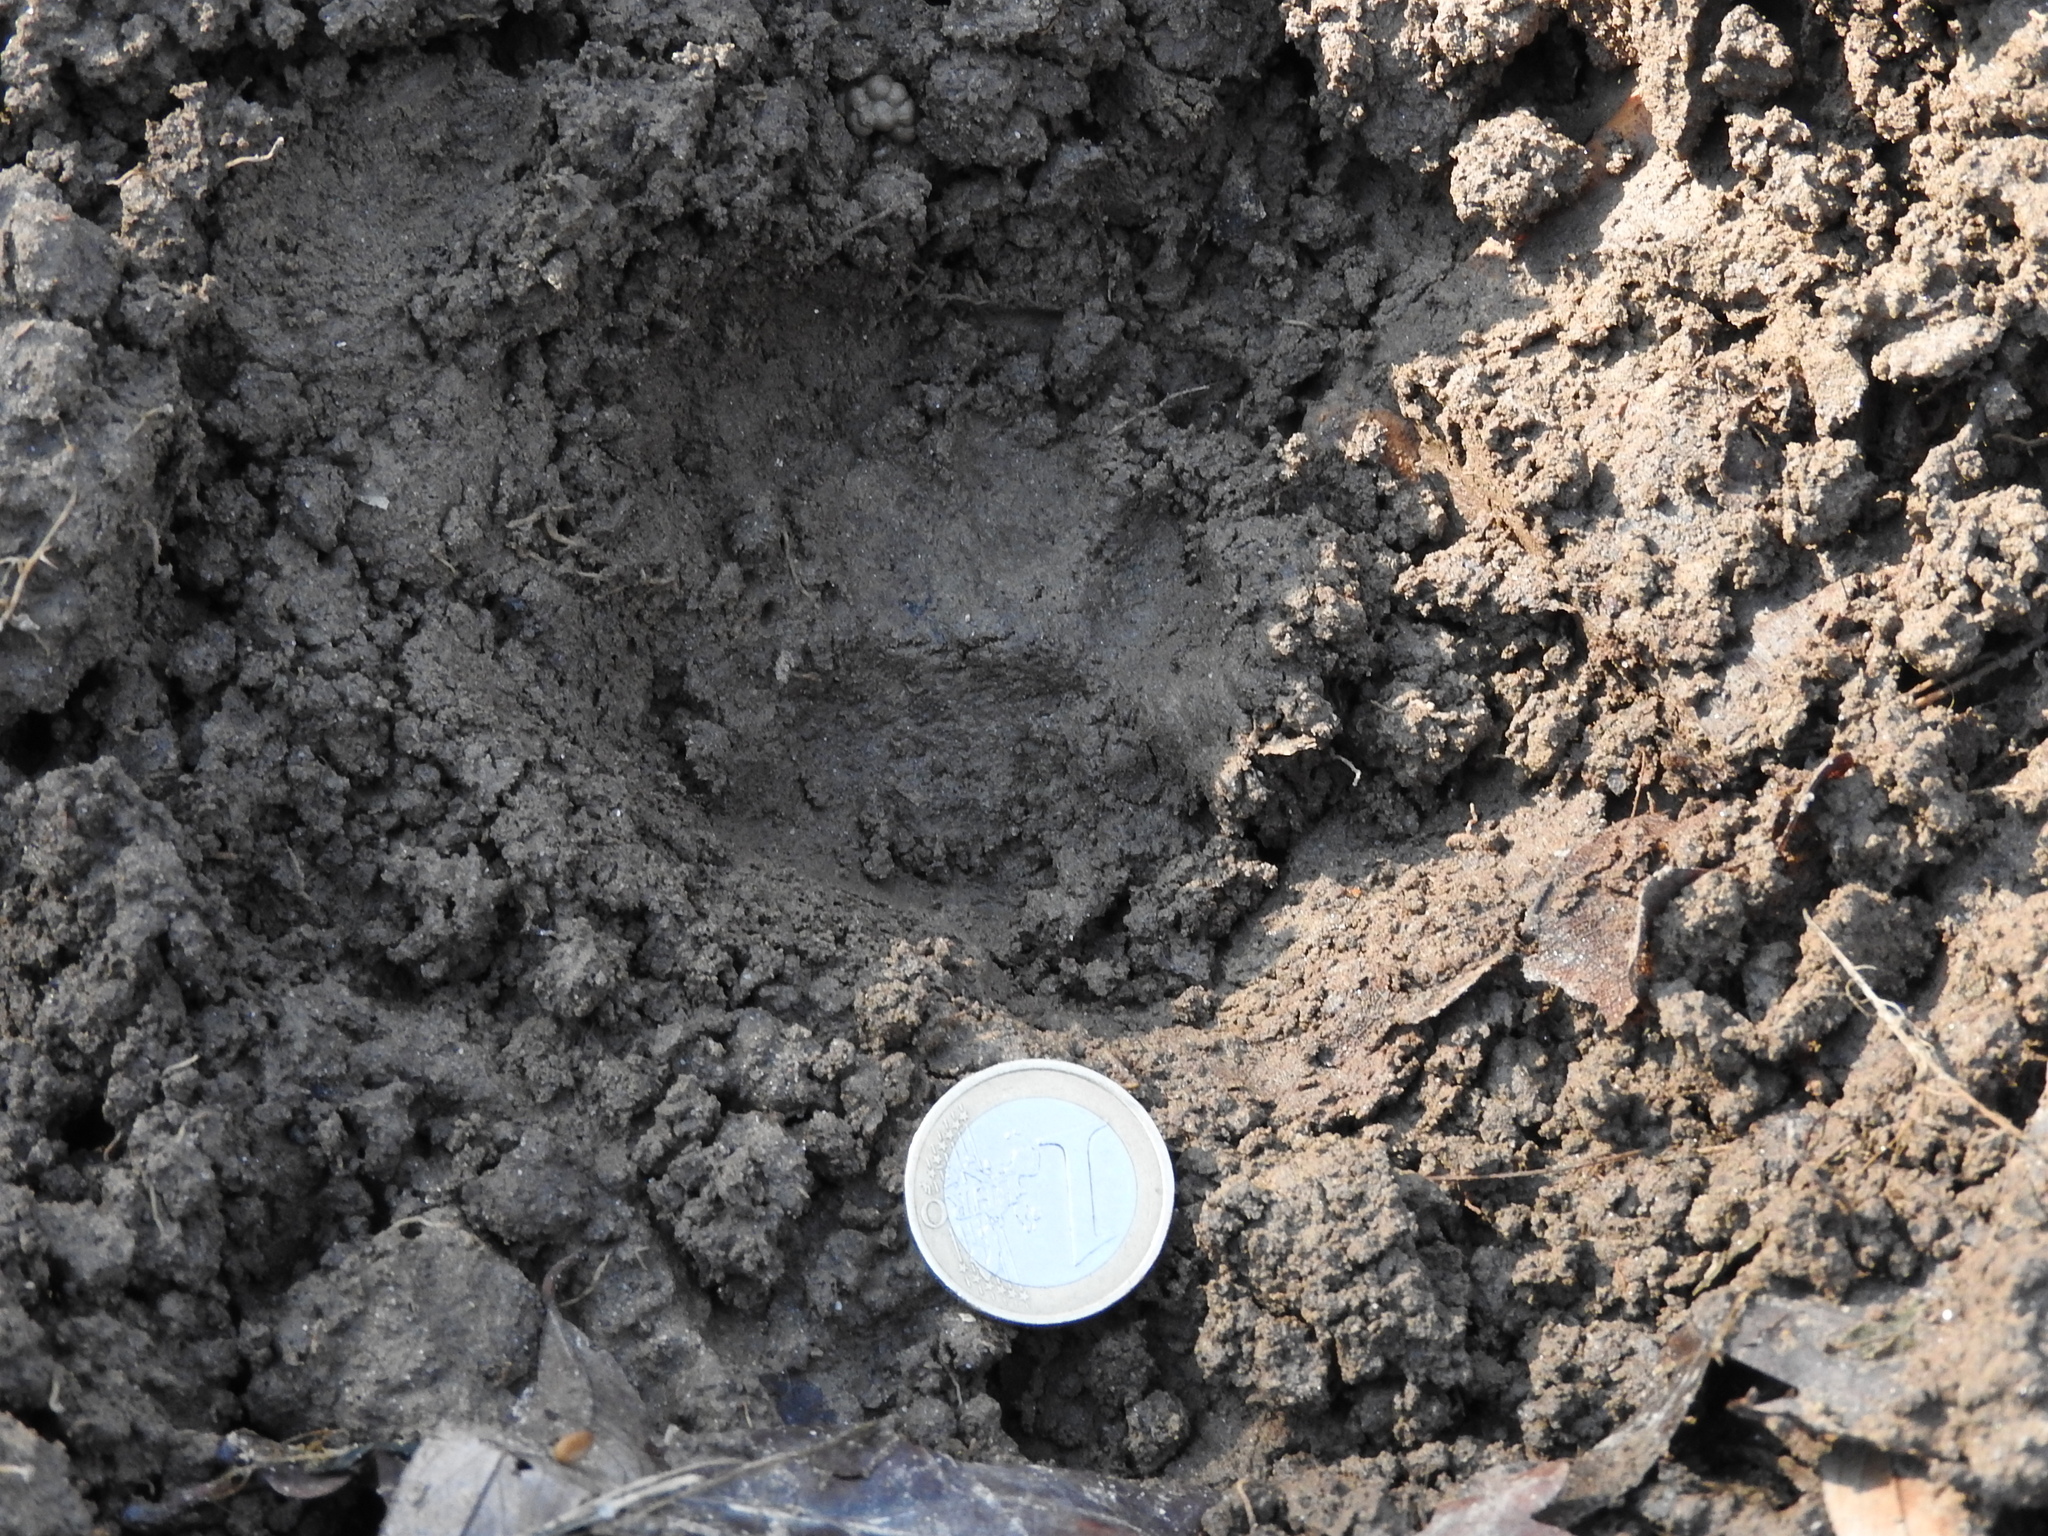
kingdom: Animalia
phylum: Chordata
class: Mammalia
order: Carnivora
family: Mustelidae
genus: Meles
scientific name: Meles meles
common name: Eurasian badger
